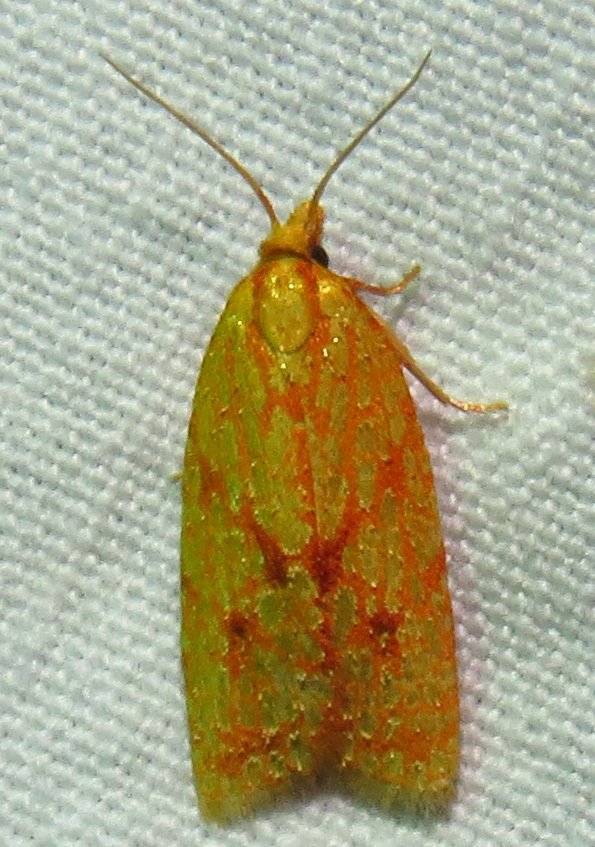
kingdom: Animalia
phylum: Arthropoda
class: Insecta
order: Lepidoptera
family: Tortricidae
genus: Sparganothis
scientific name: Sparganothis sulfureana
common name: Sparganothis fruitworm moth
